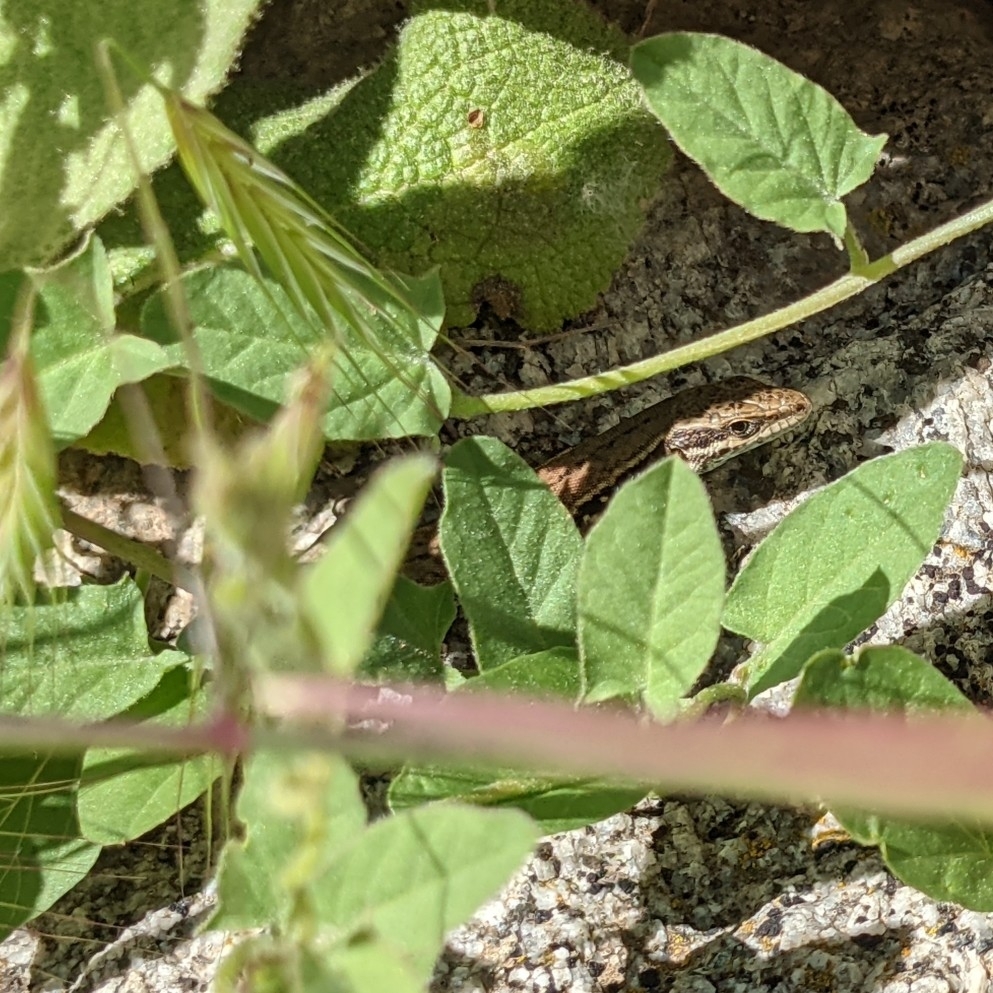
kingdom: Animalia
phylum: Chordata
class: Squamata
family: Lacertidae
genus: Podarcis
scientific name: Podarcis muralis
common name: Common wall lizard
